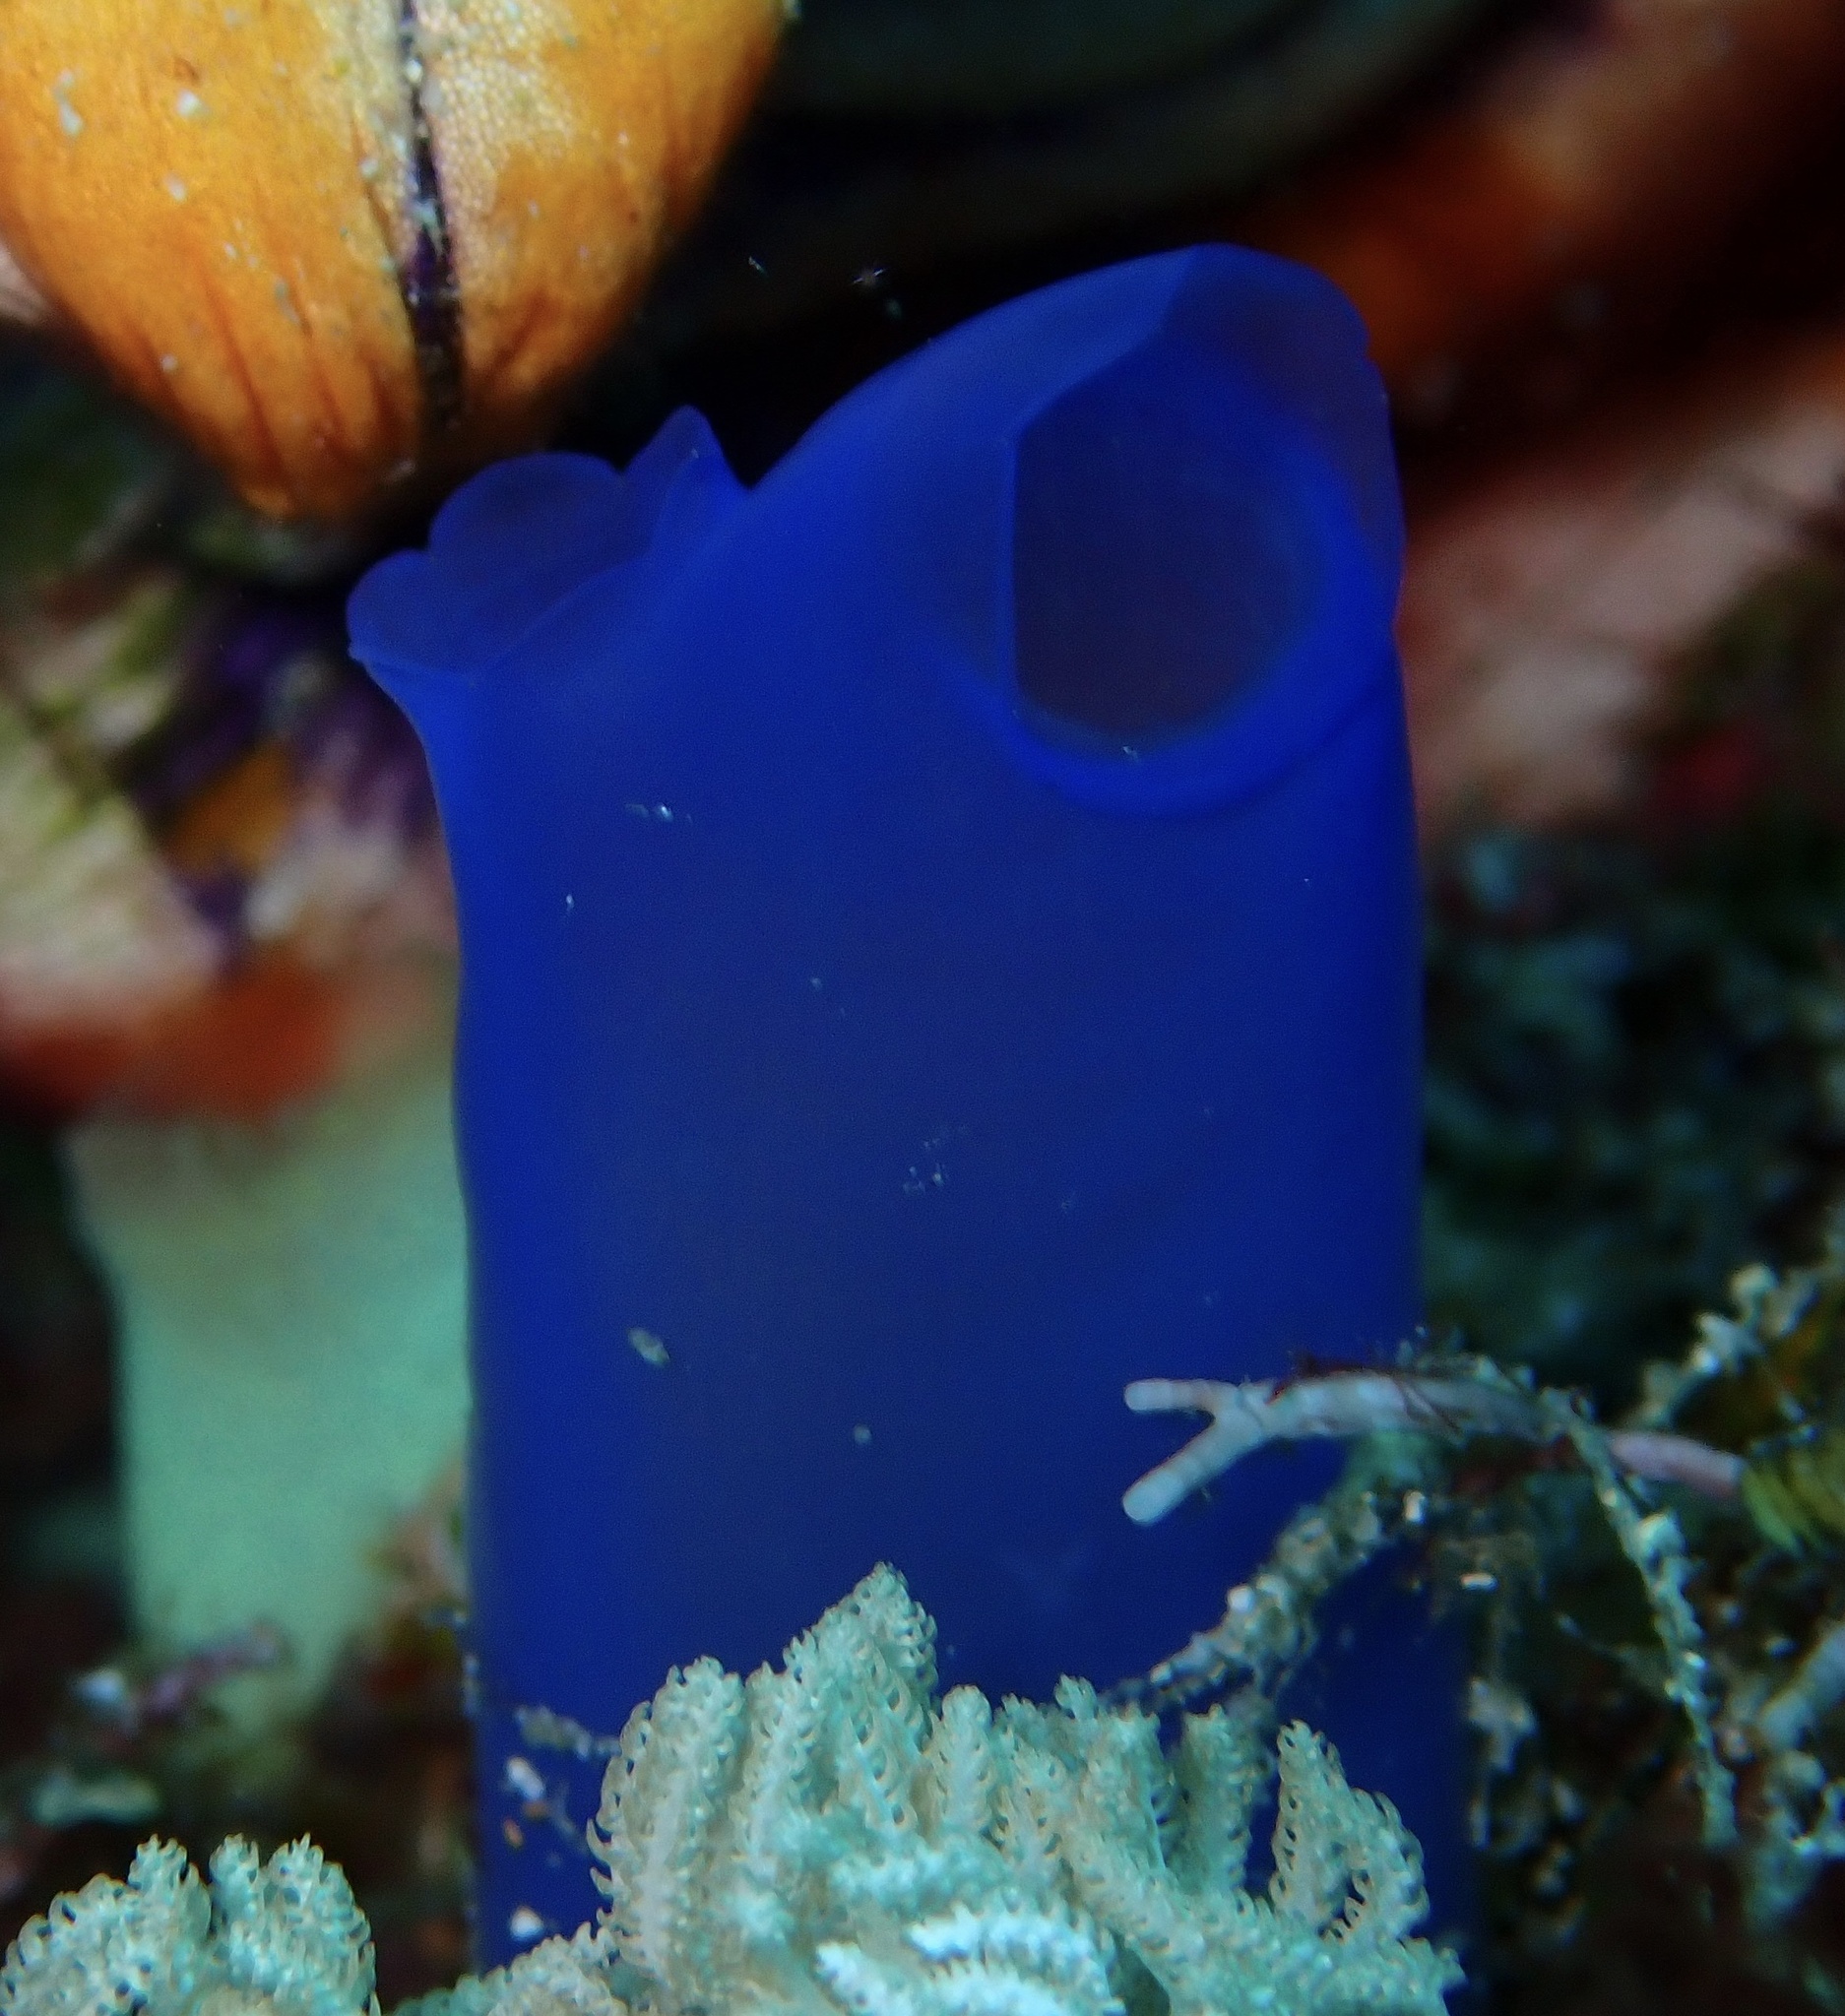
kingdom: Animalia
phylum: Chordata
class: Ascidiacea
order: Aplousobranchia
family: Diazonidae
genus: Rhopalaea
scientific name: Rhopalaea fusca
